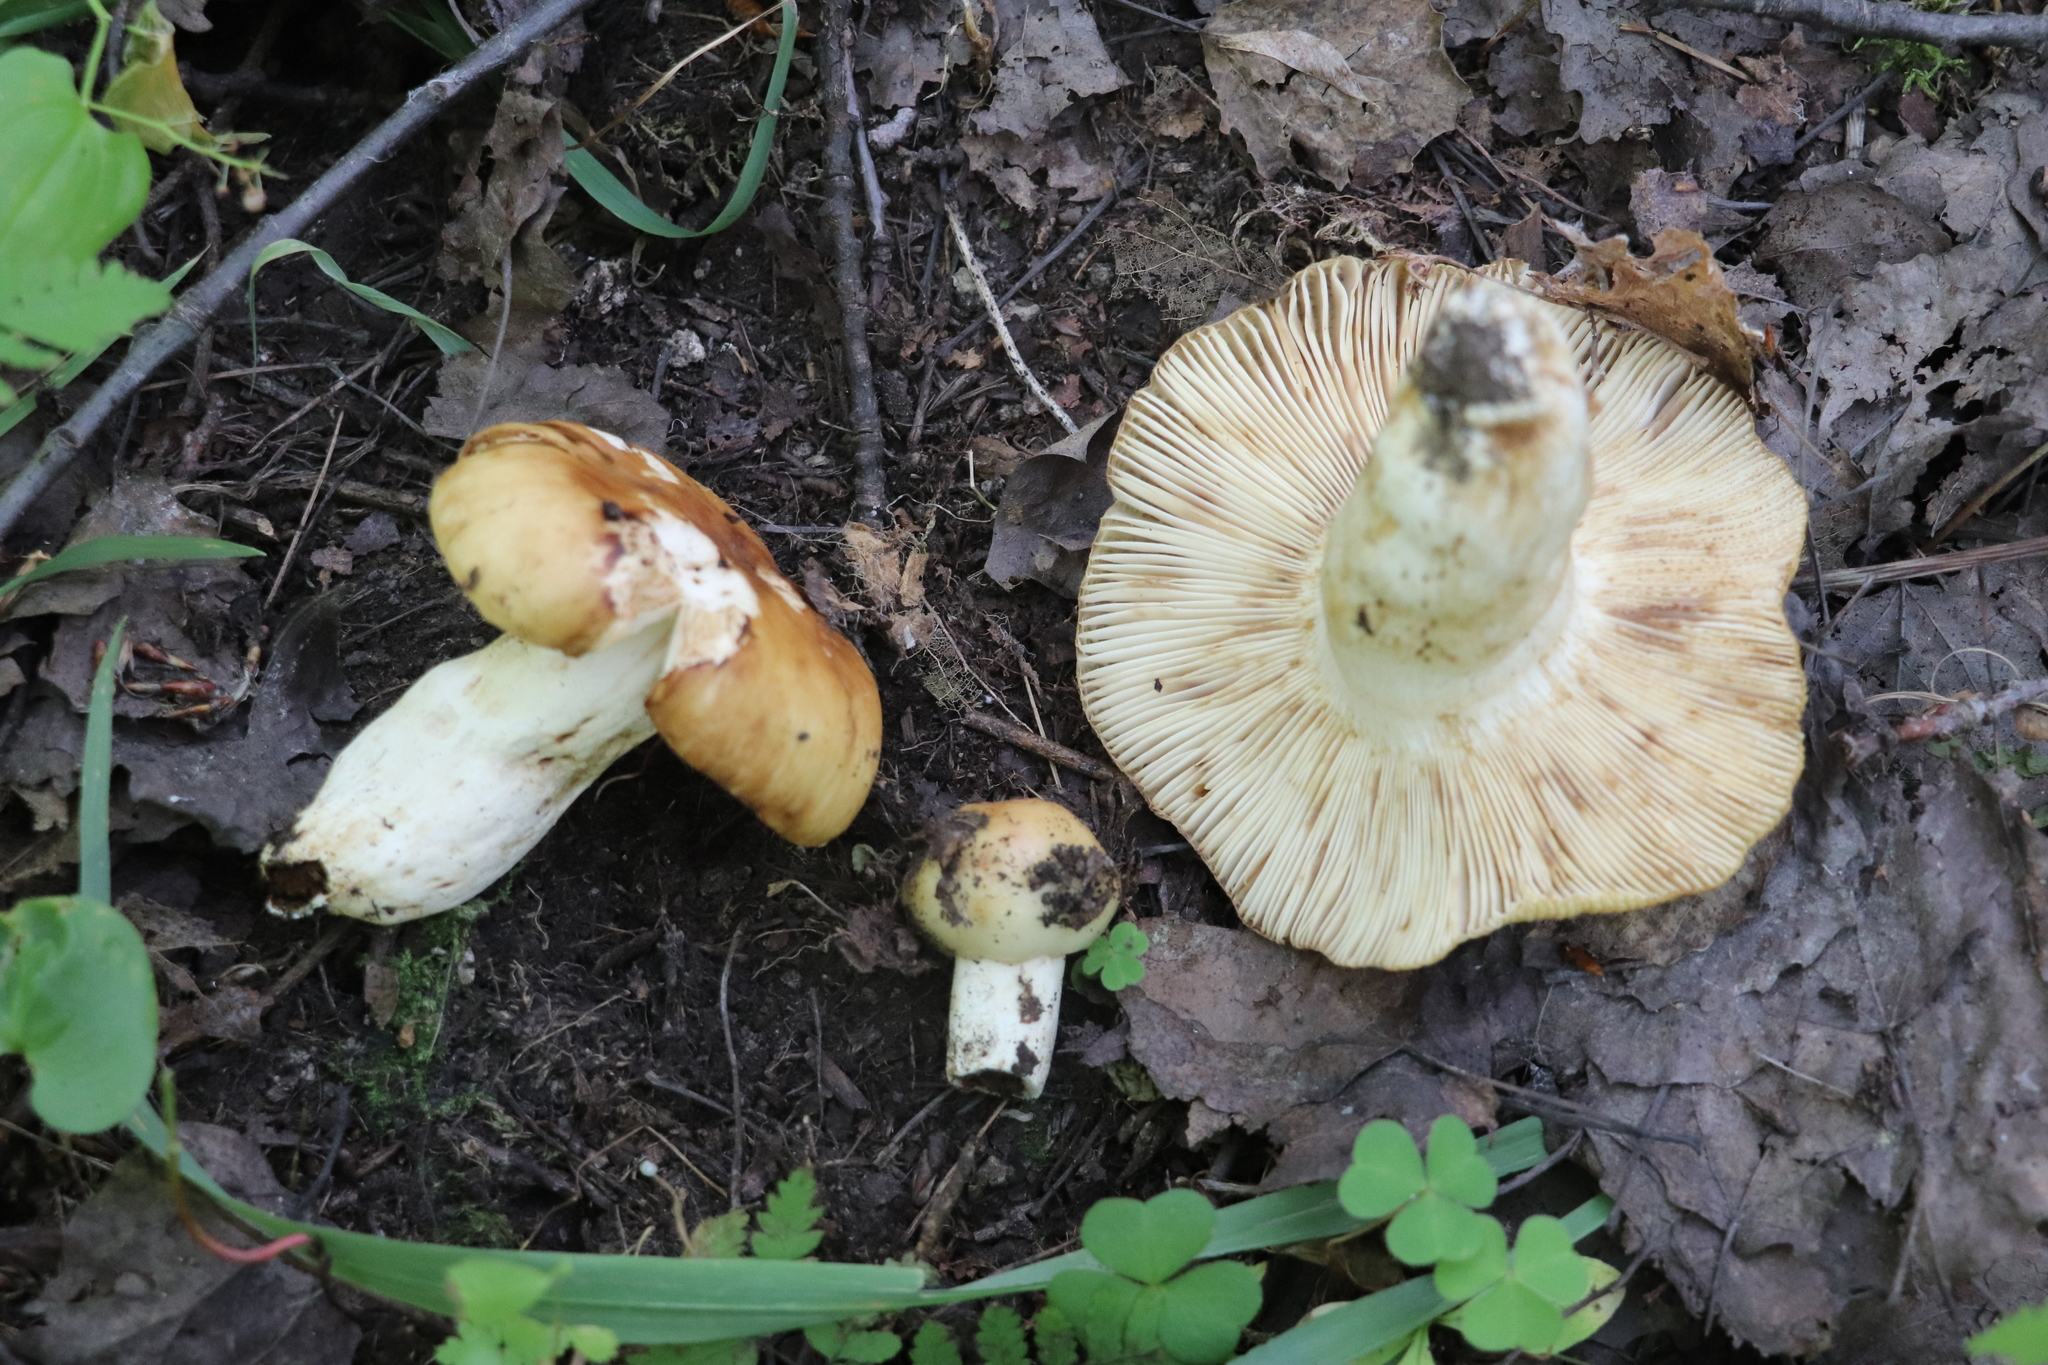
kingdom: Fungi
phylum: Basidiomycota
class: Agaricomycetes
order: Russulales
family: Russulaceae
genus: Russula
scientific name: Russula foetens
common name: Foetid russula
